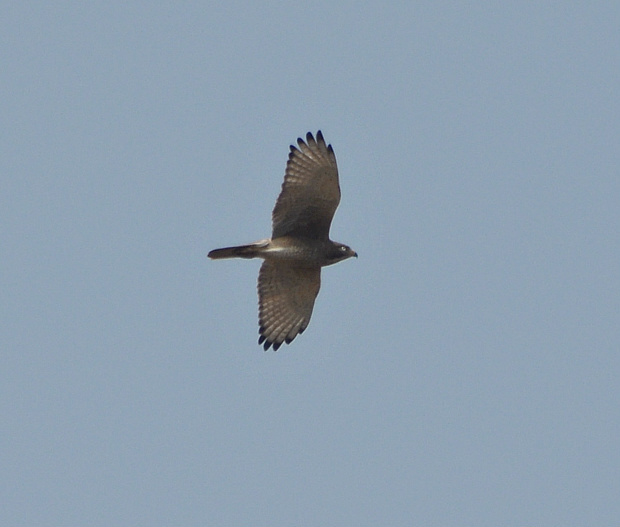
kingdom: Animalia
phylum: Chordata
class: Aves
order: Accipitriformes
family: Accipitridae
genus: Butastur
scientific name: Butastur teesa
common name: White-eyed buzzard
